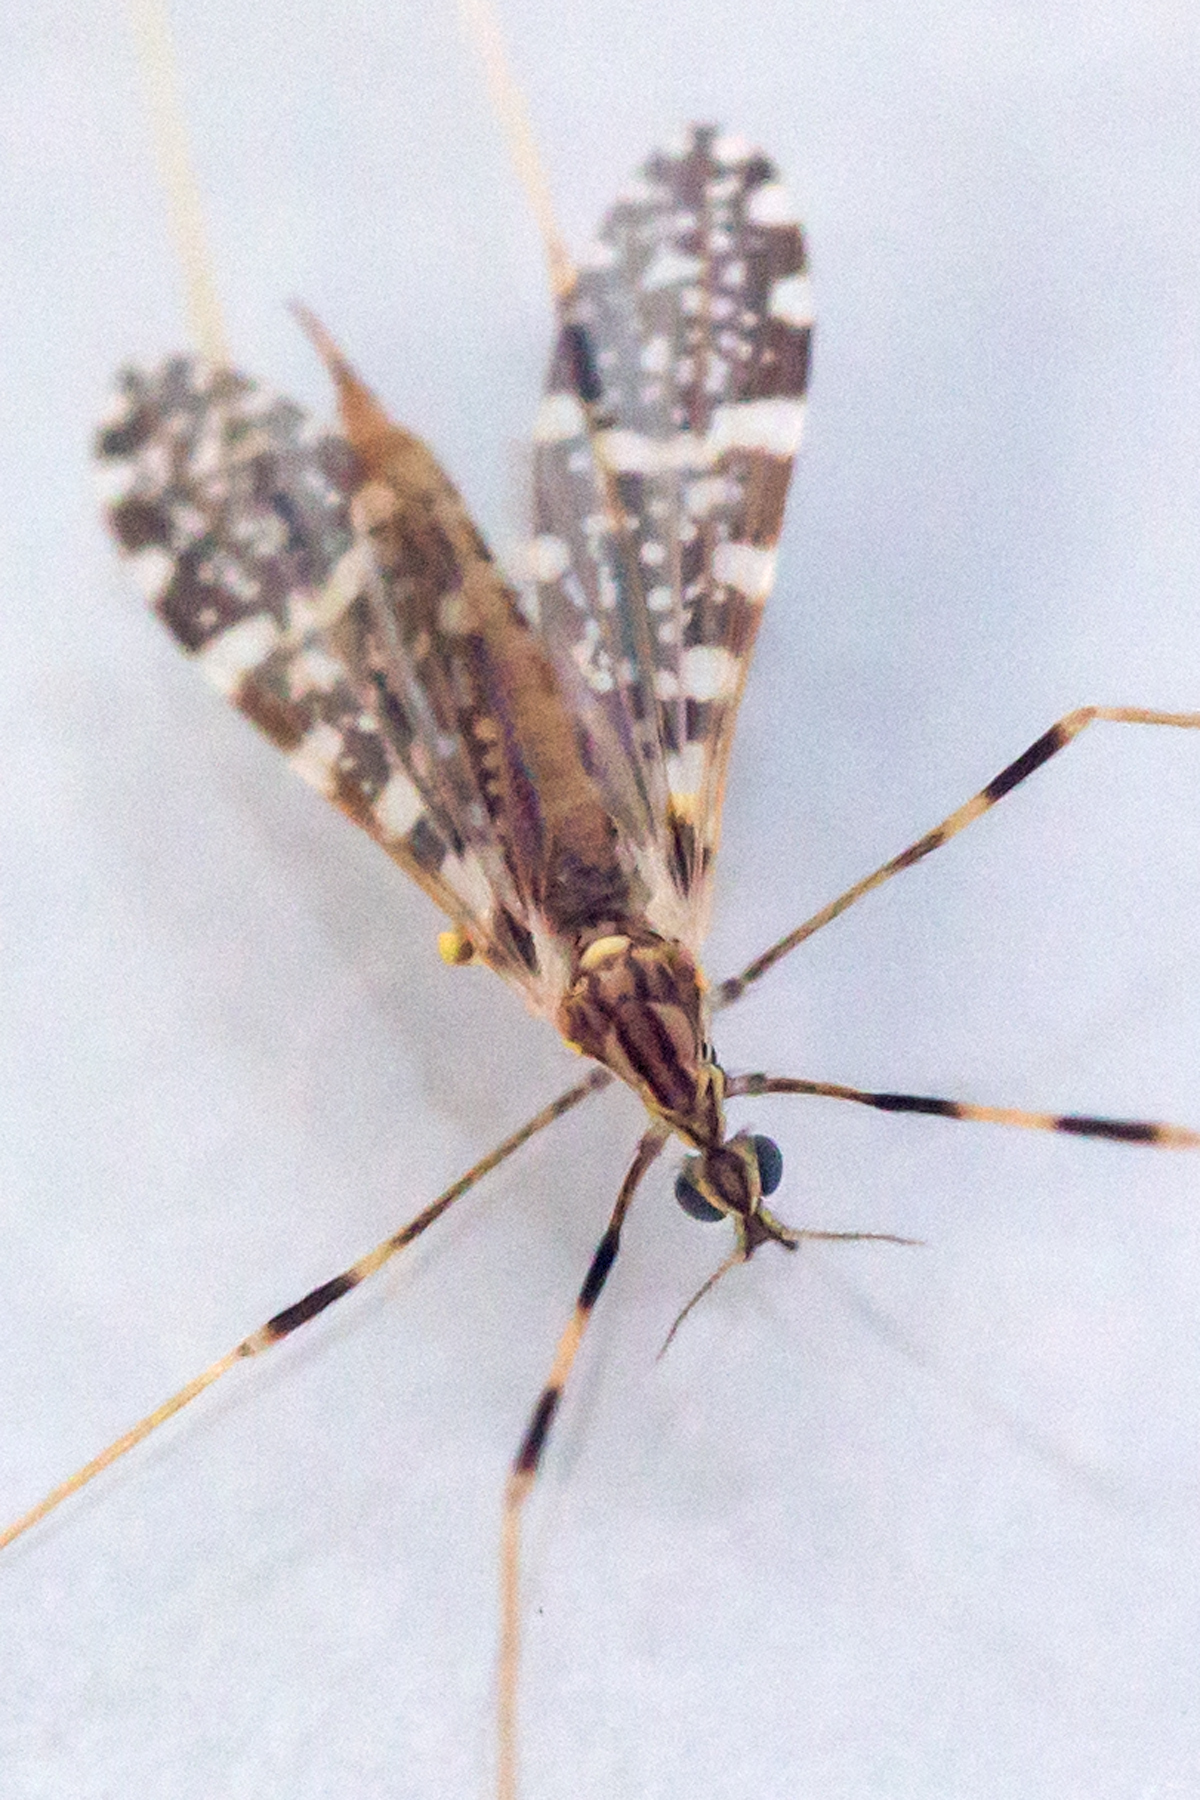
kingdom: Animalia
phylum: Arthropoda
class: Insecta
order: Diptera
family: Limoniidae
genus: Erioptera
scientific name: Erioptera caliptera
